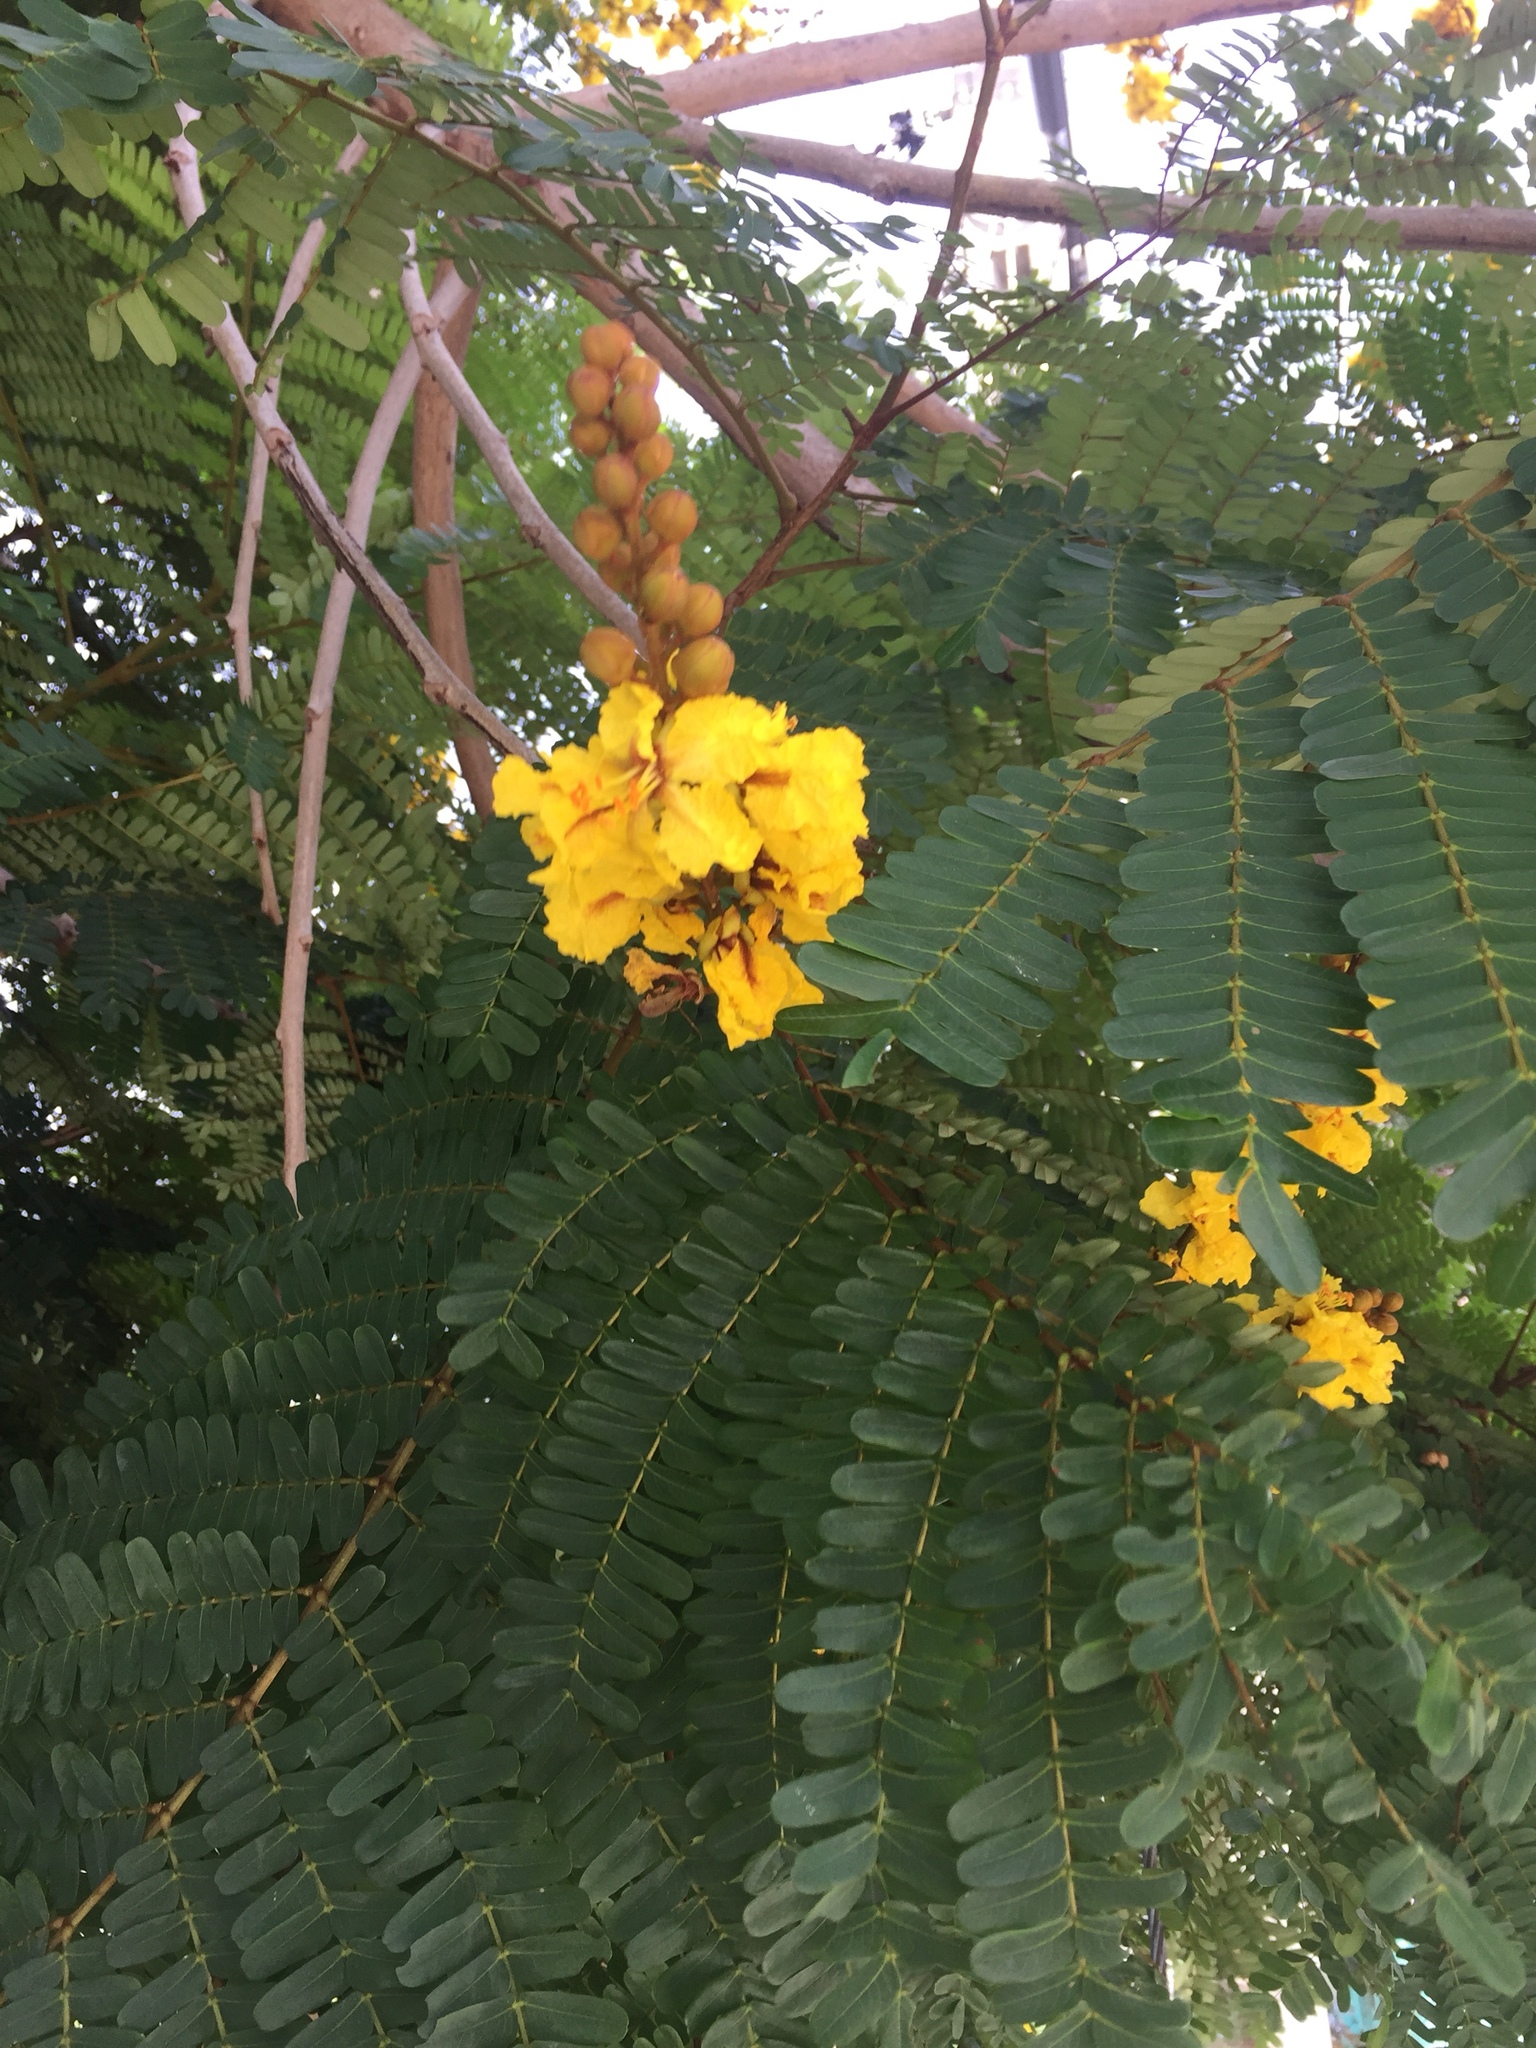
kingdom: Plantae
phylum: Tracheophyta
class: Magnoliopsida
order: Fabales
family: Fabaceae
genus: Peltophorum
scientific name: Peltophorum pterocarpum
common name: Yellow flame
